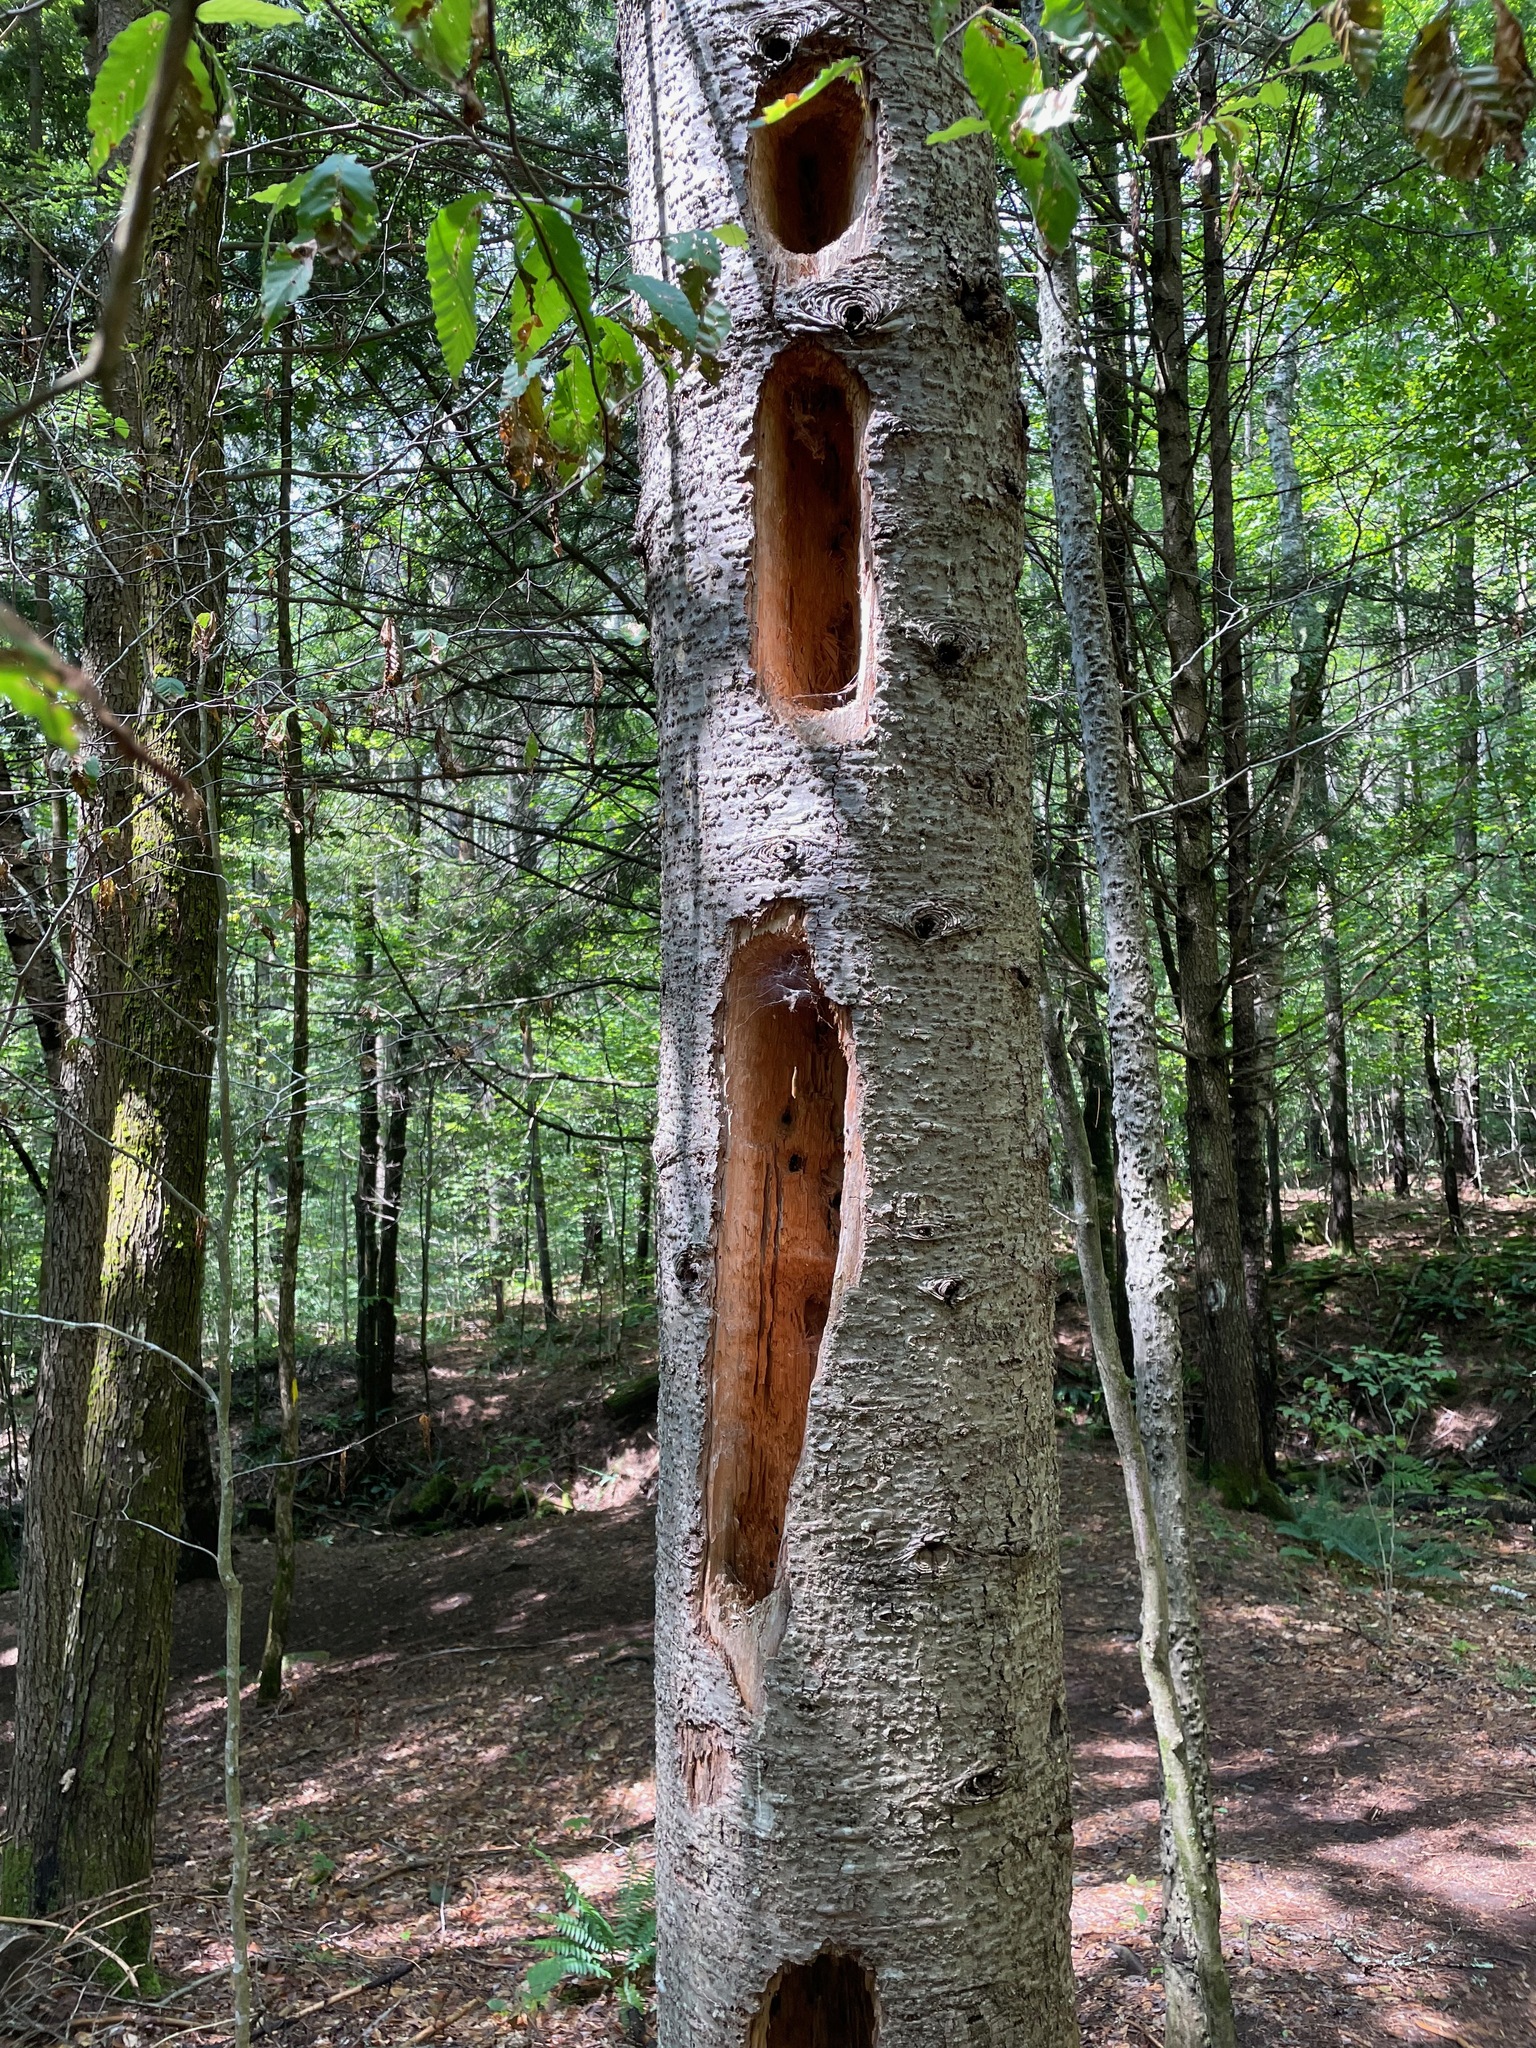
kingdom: Animalia
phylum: Chordata
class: Aves
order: Piciformes
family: Picidae
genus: Dryocopus
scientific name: Dryocopus pileatus
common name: Pileated woodpecker
